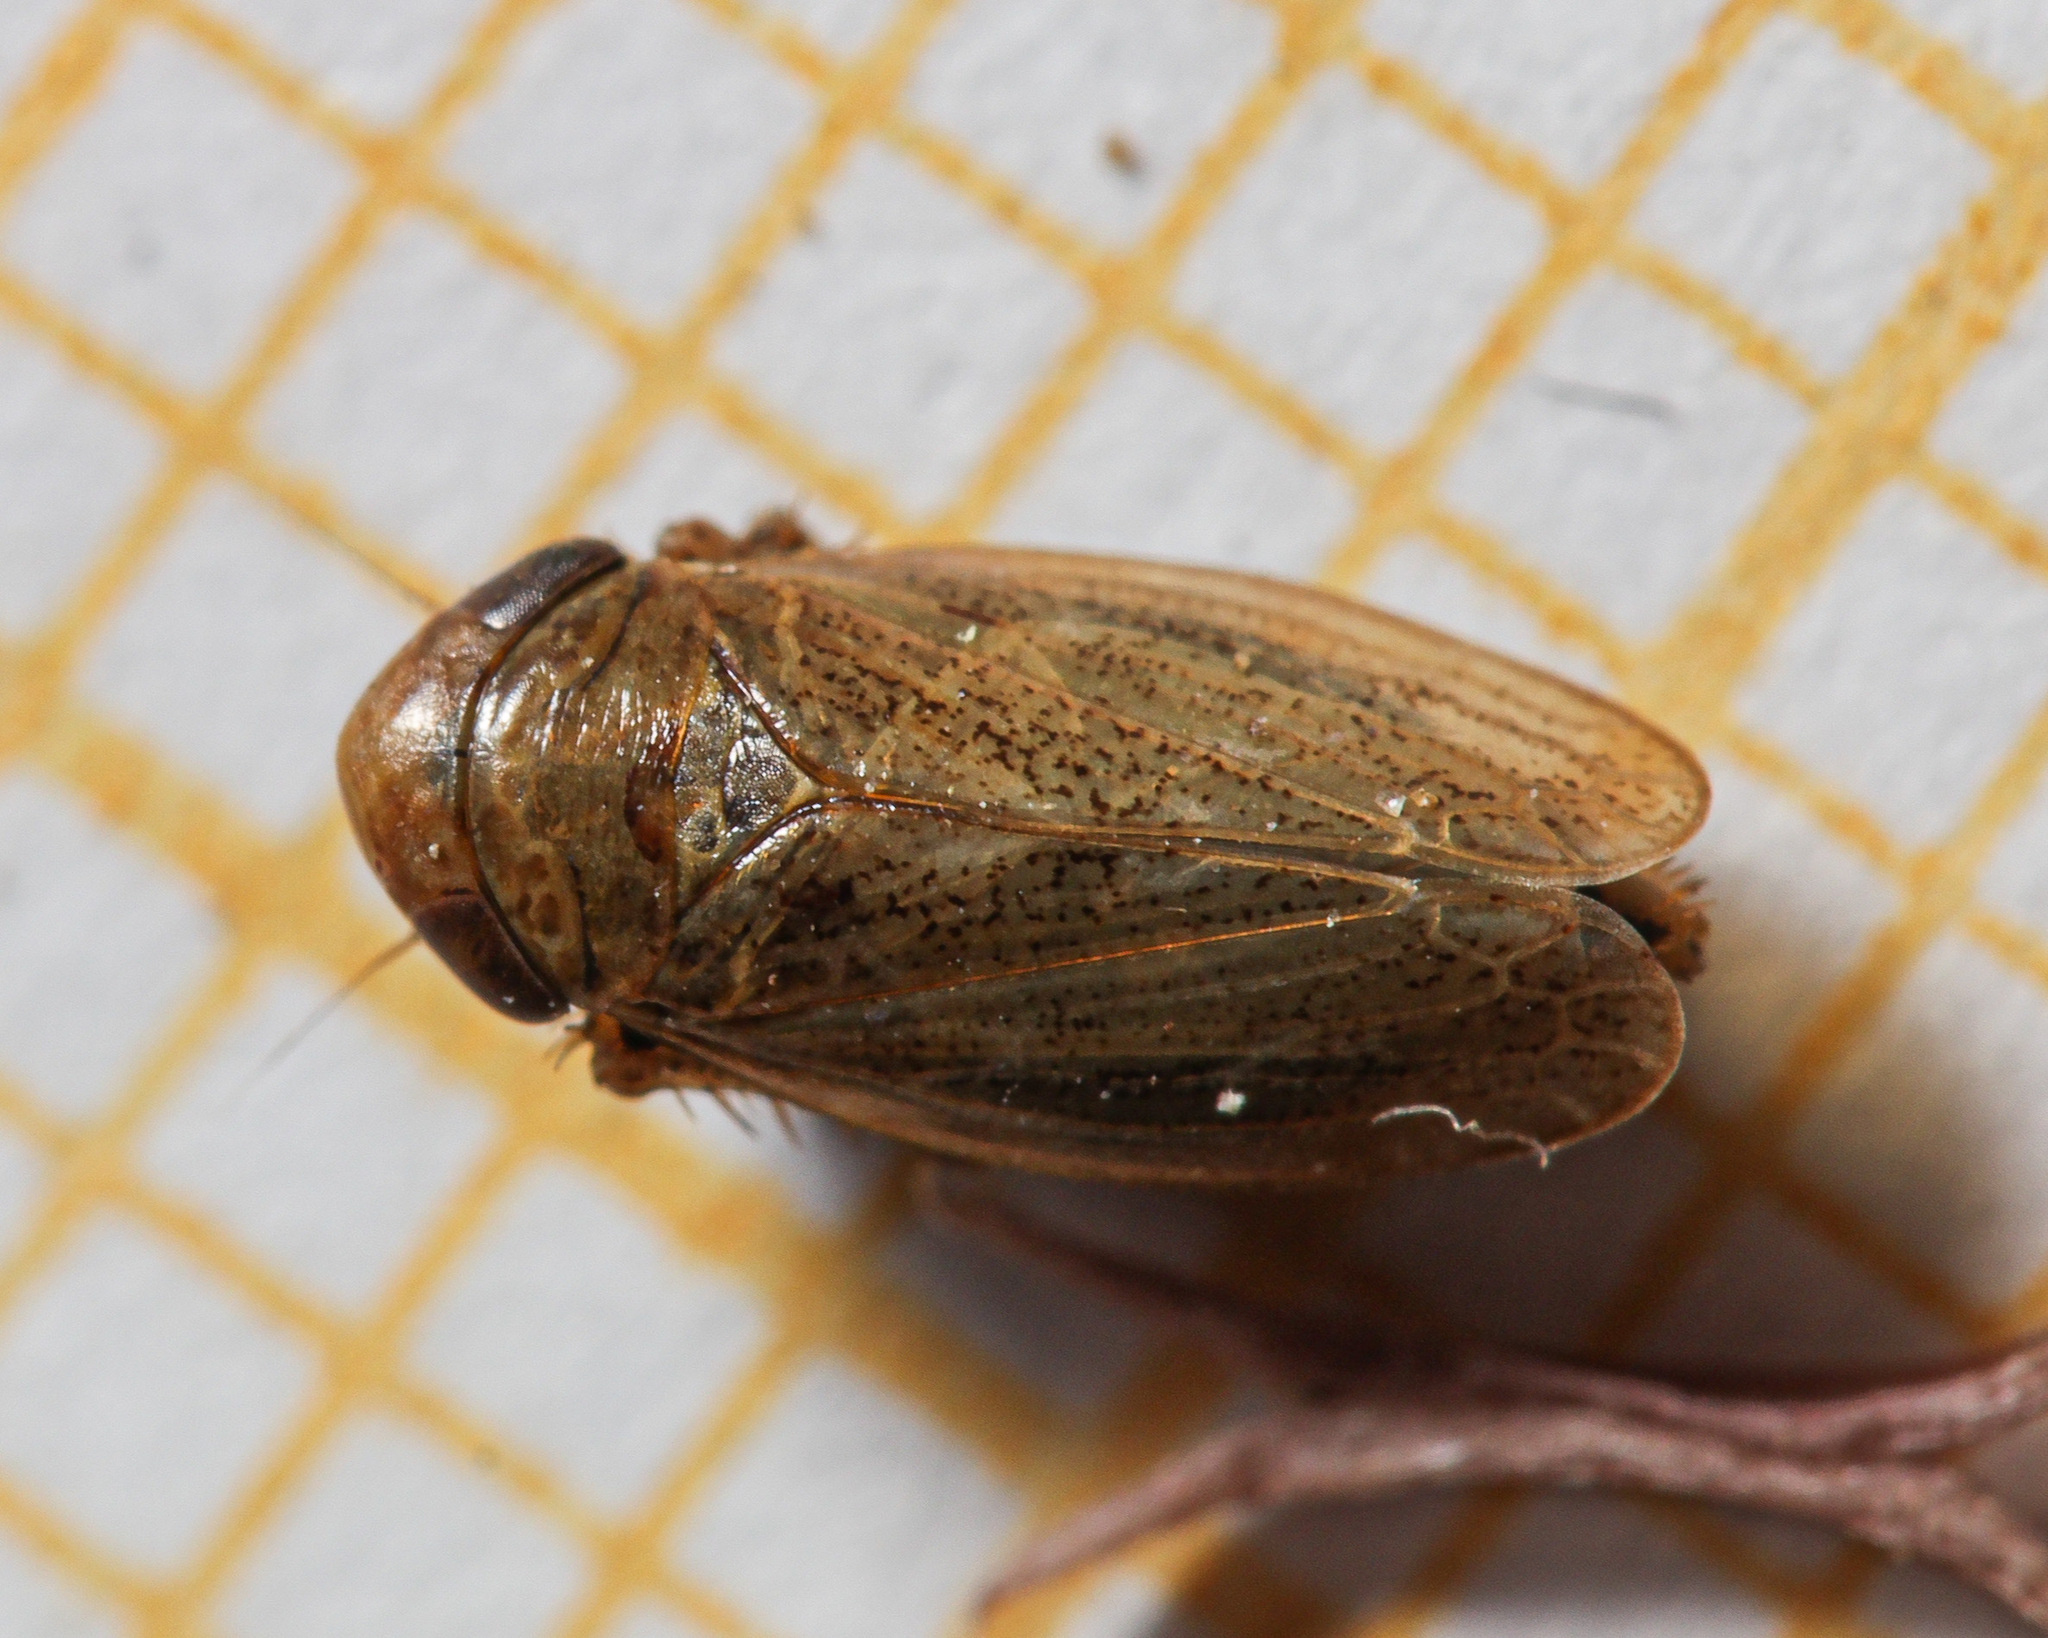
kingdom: Animalia
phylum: Arthropoda
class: Insecta
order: Hemiptera
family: Cicadellidae
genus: Euscelis
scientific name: Euscelis incisa
